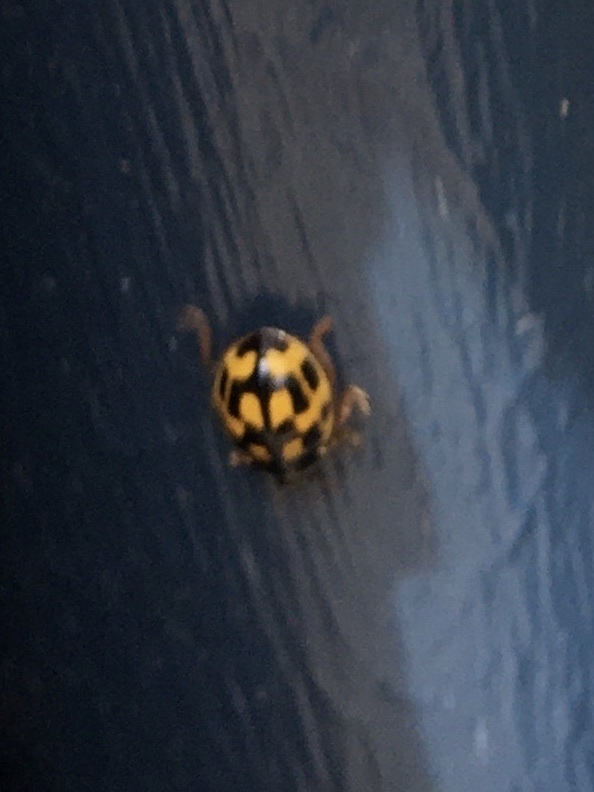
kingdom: Animalia
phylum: Arthropoda
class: Insecta
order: Coleoptera
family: Coccinellidae
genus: Propylaea
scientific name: Propylaea quatuordecimpunctata
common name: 14-spotted ladybird beetle
